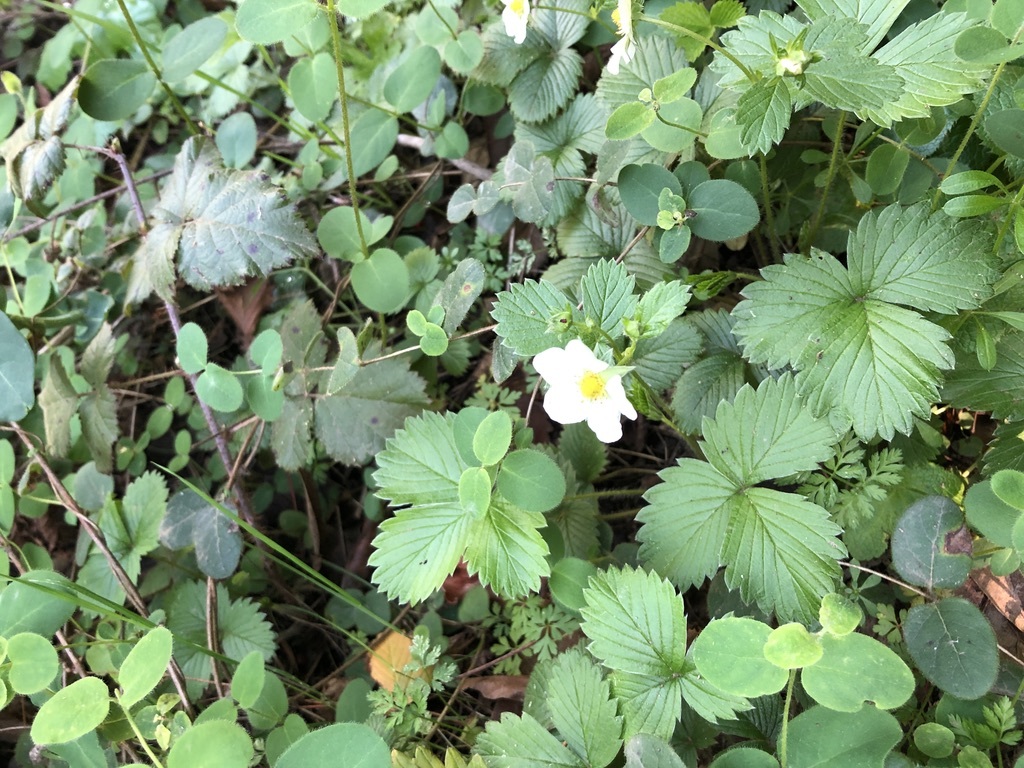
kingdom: Plantae
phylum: Tracheophyta
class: Magnoliopsida
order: Rosales
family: Rosaceae
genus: Fragaria
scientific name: Fragaria vesca
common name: Wild strawberry
